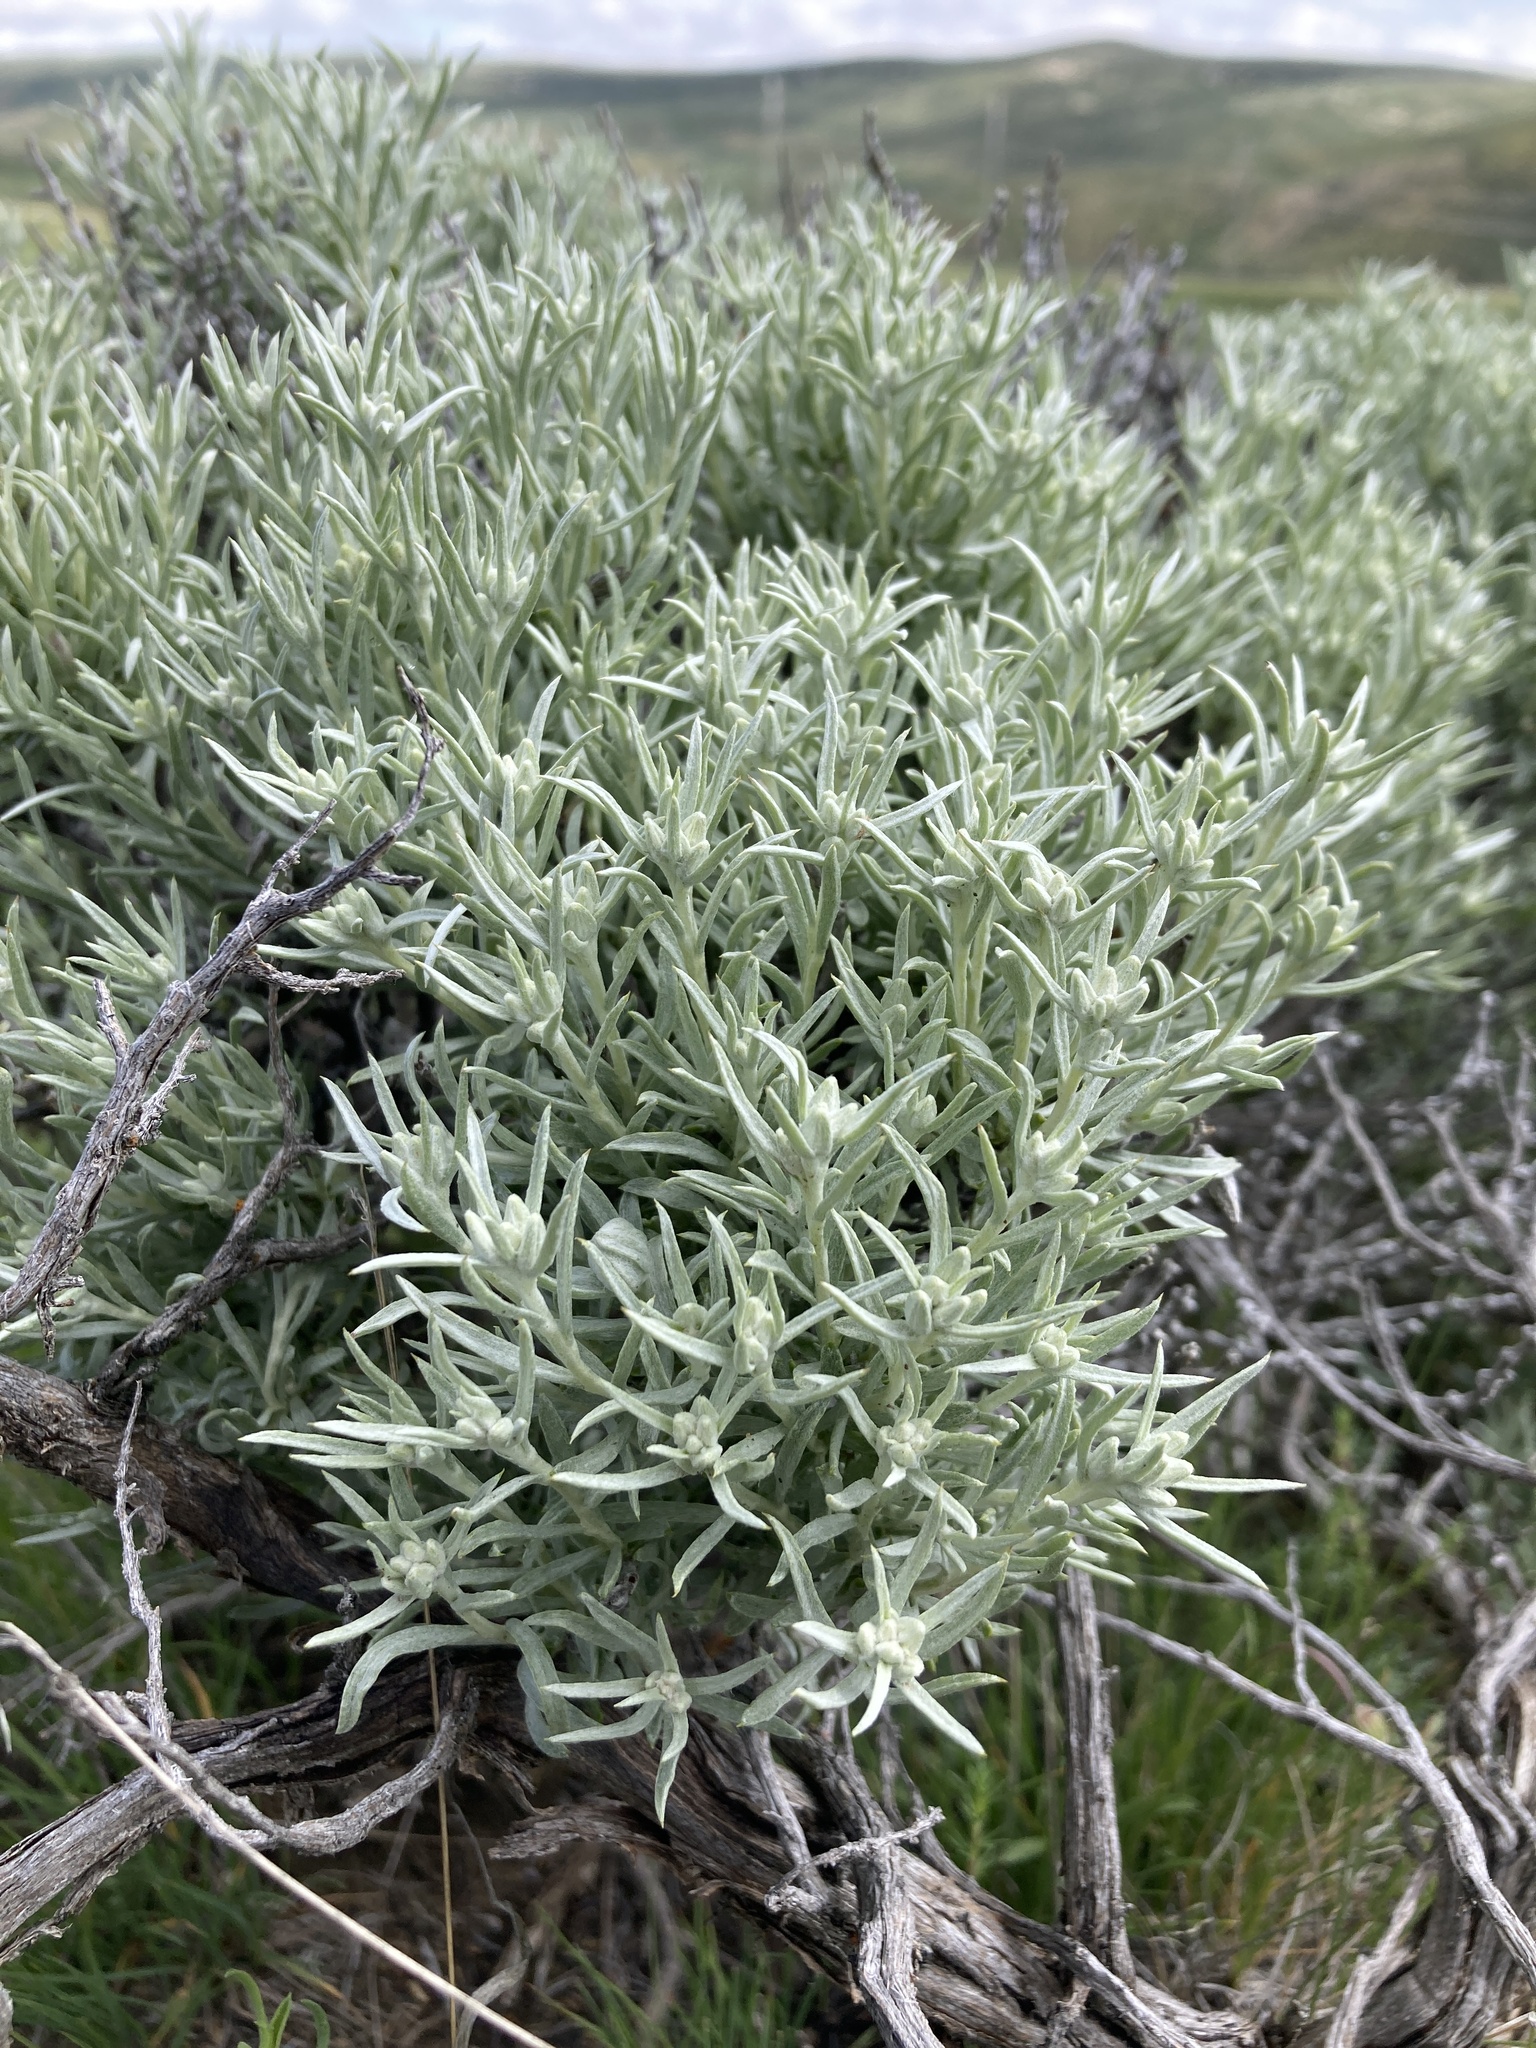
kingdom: Plantae
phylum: Tracheophyta
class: Magnoliopsida
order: Asterales
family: Asteraceae
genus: Tetradymia
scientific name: Tetradymia canescens
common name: Spineless horsebrush
